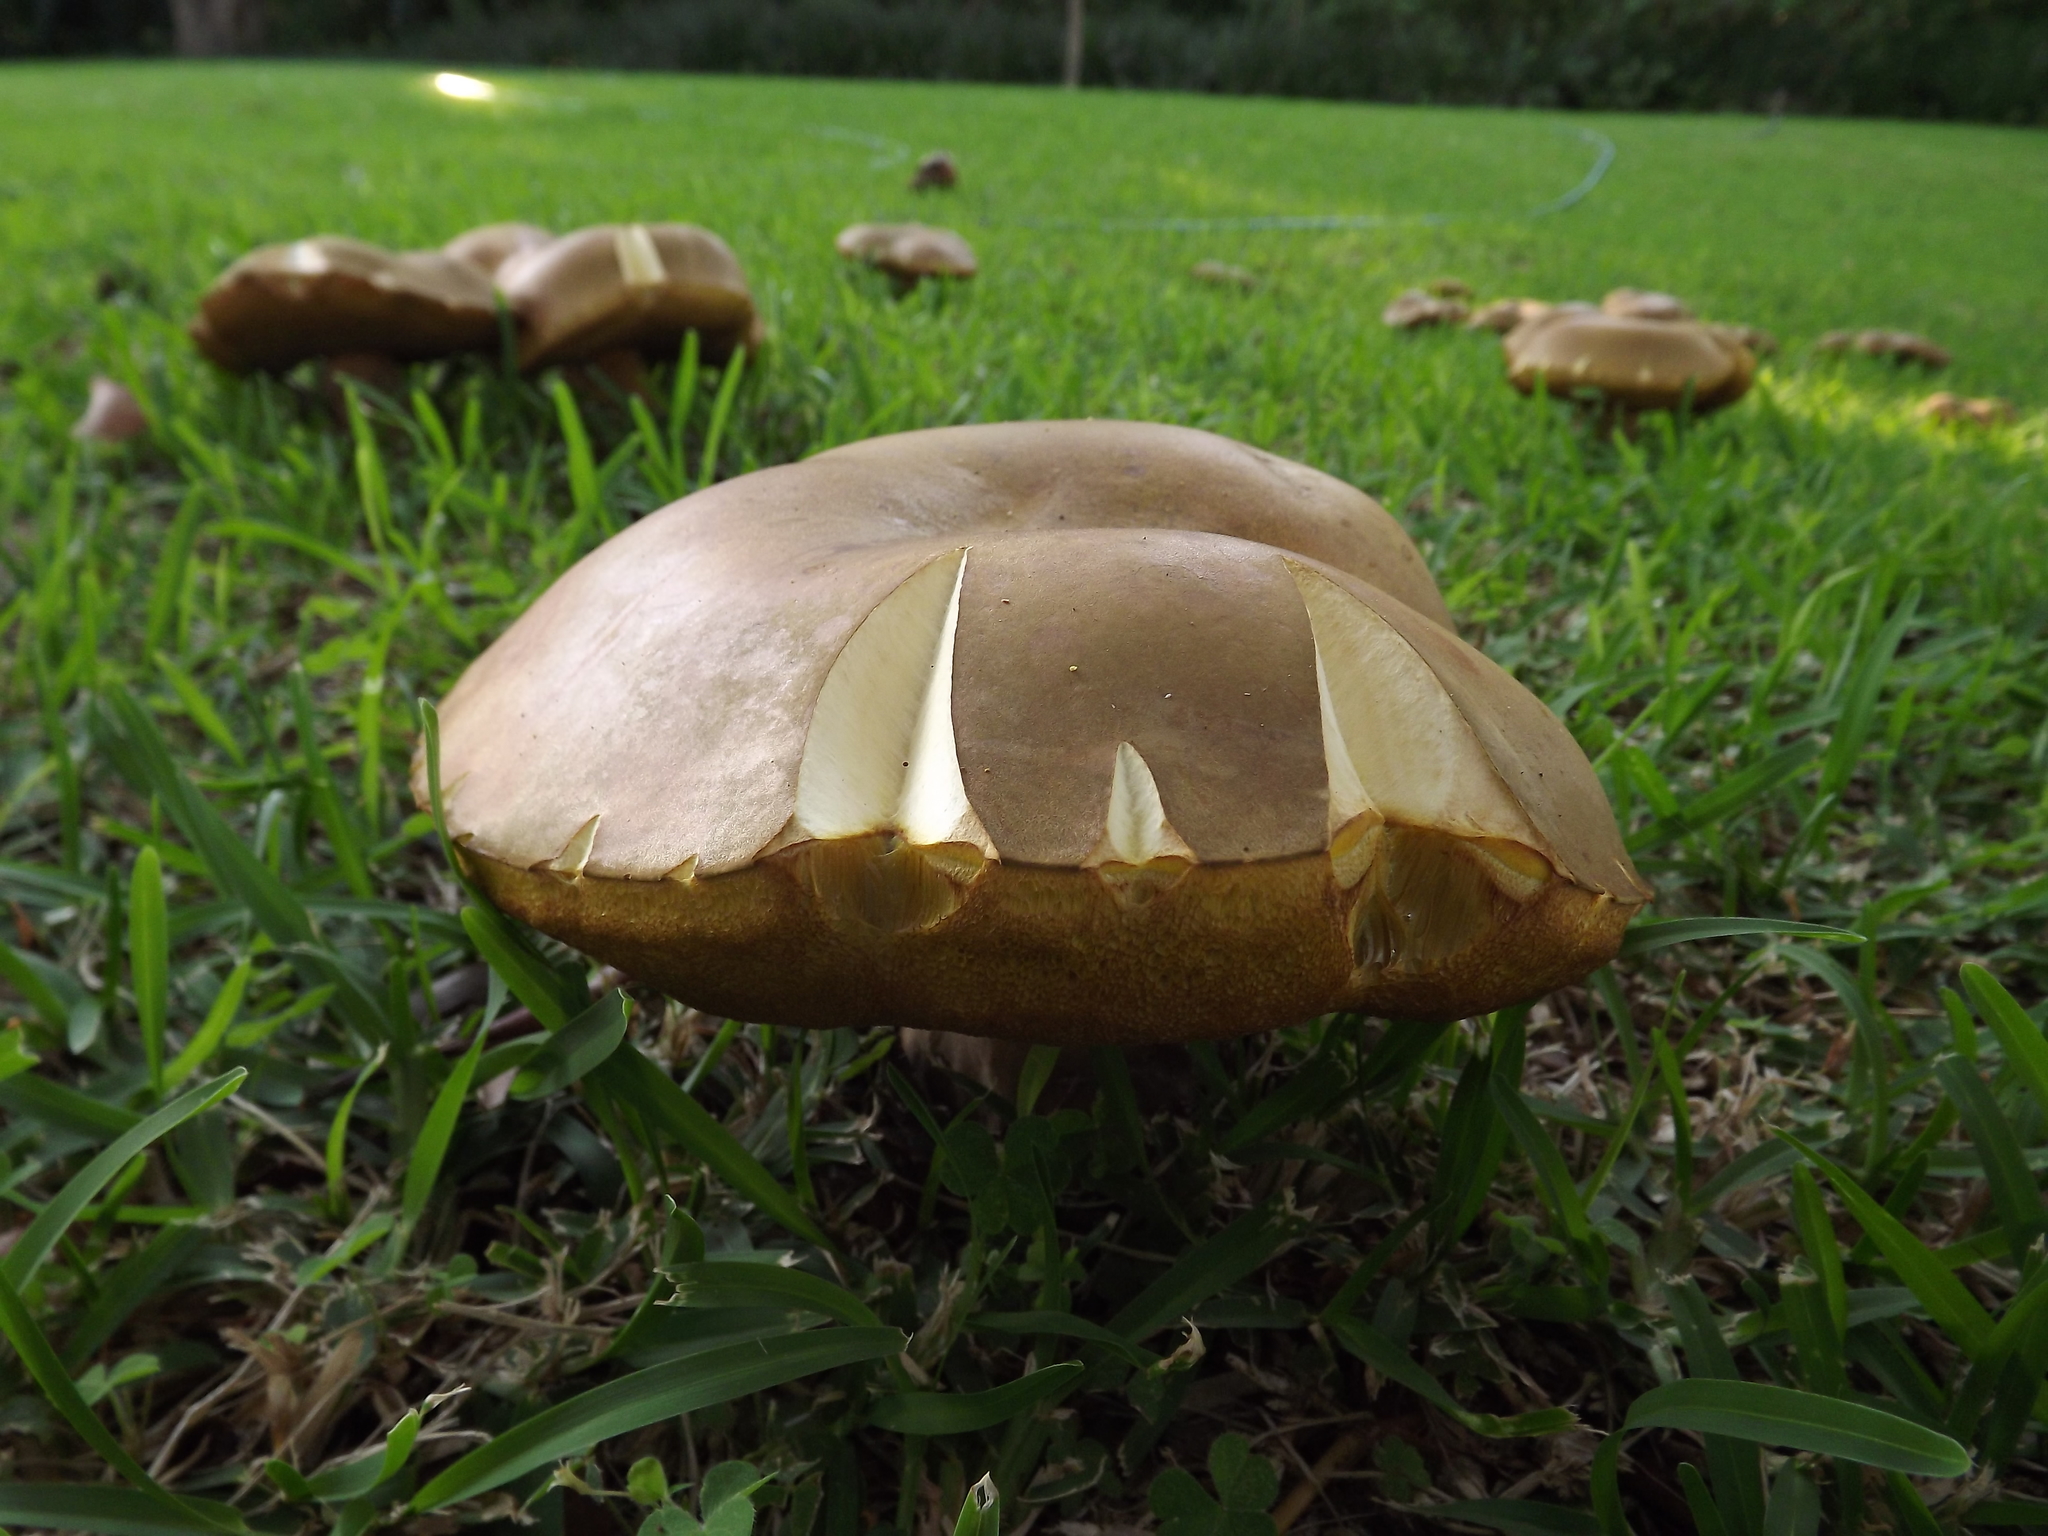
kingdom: Fungi
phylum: Basidiomycota
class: Agaricomycetes
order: Boletales
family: Boletinellaceae
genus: Phlebopus
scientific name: Phlebopus sudanicus
